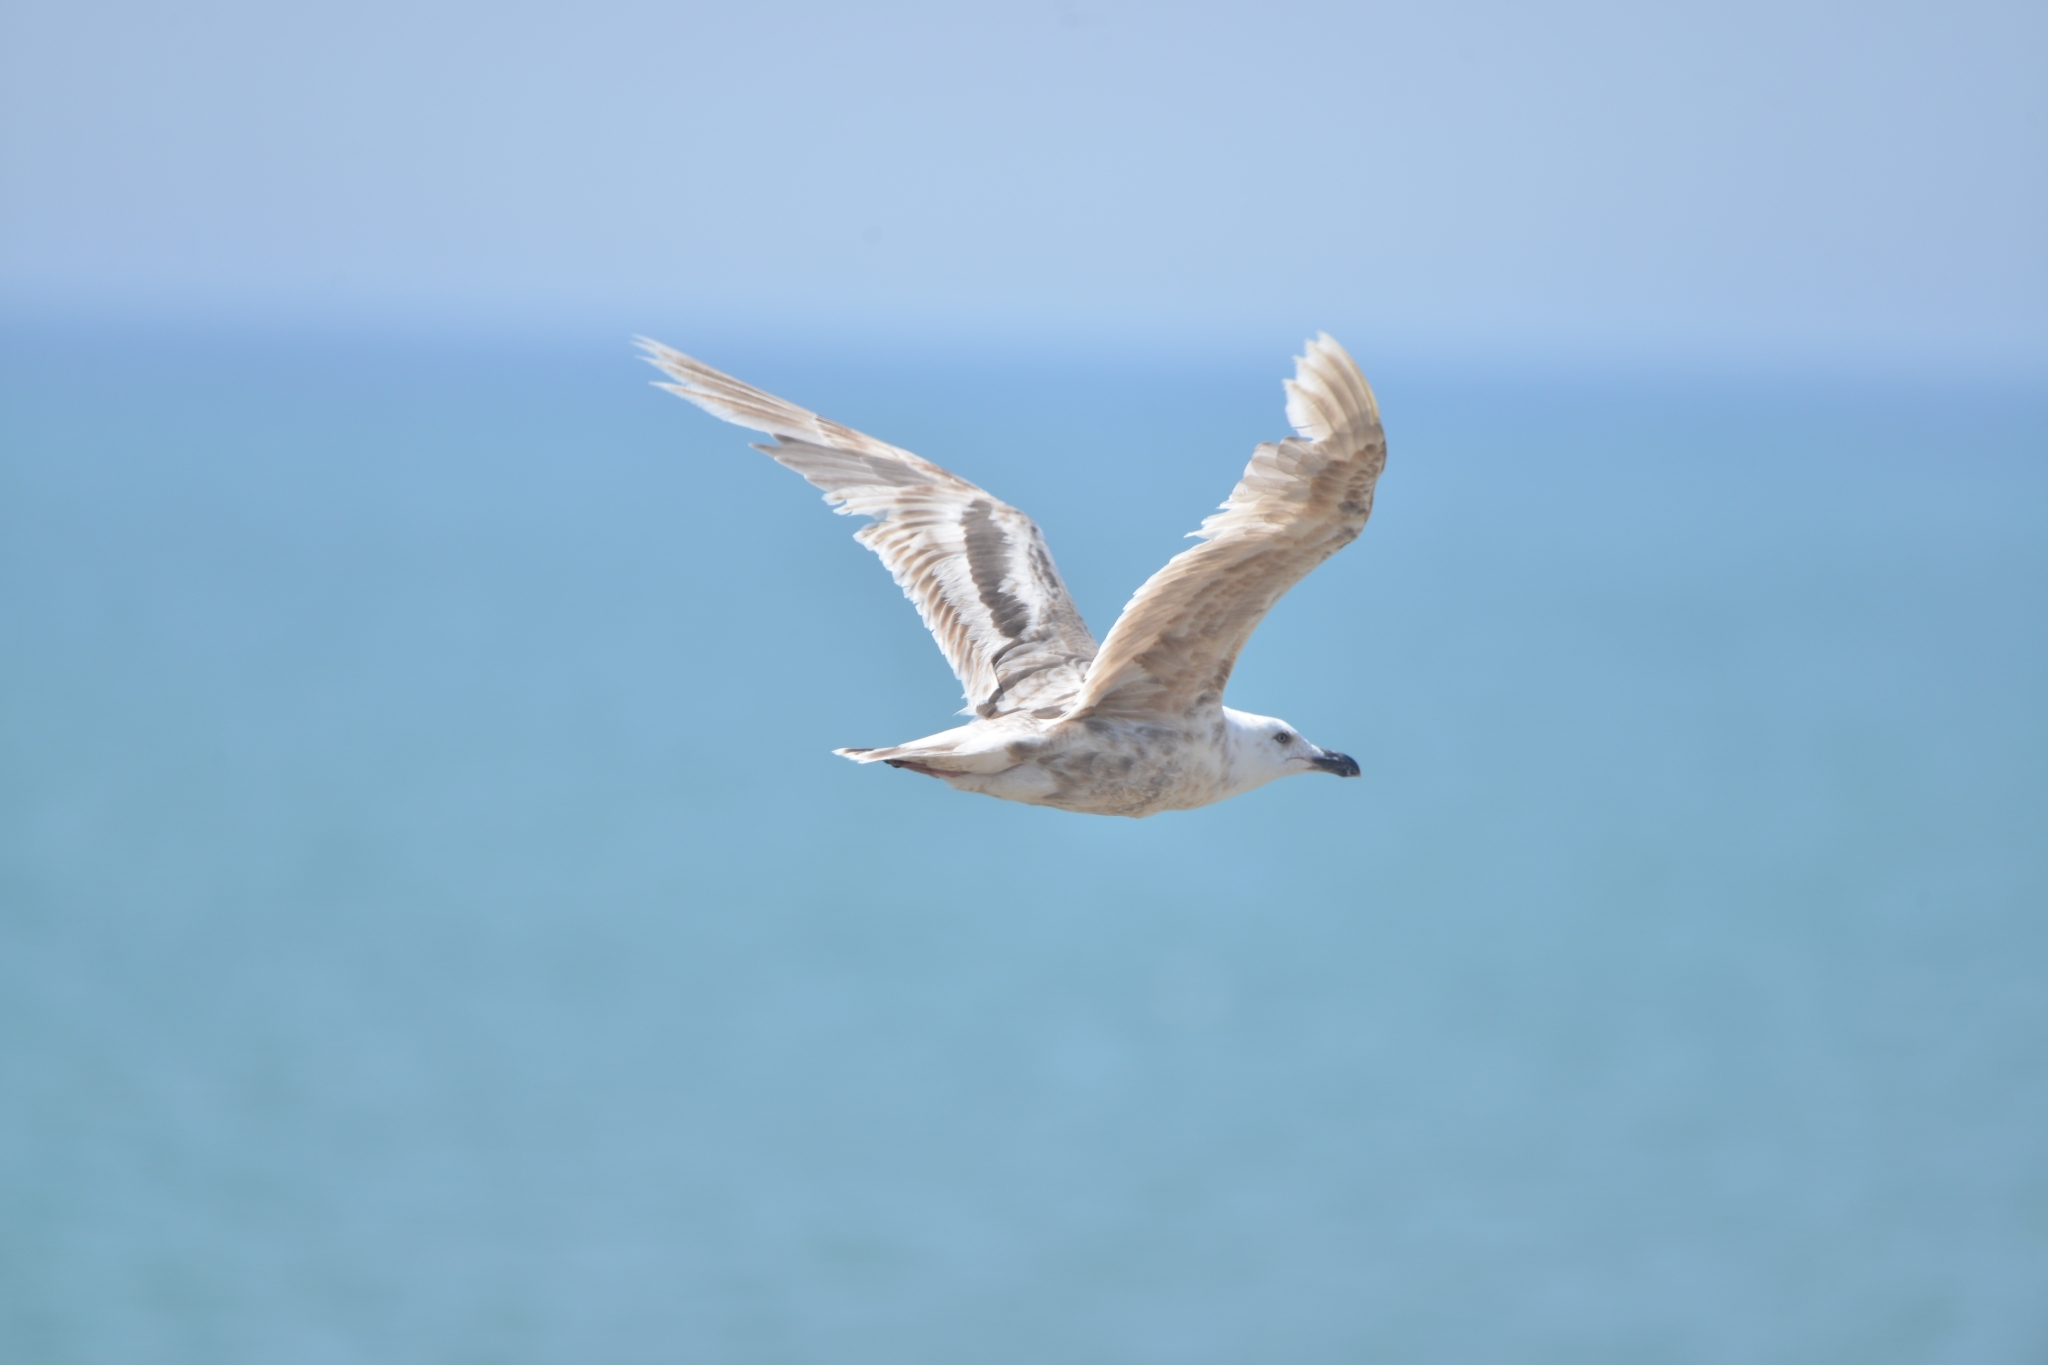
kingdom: Animalia
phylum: Chordata
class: Aves
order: Charadriiformes
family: Laridae
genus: Larus
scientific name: Larus schistisagus
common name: Slaty-backed gull
